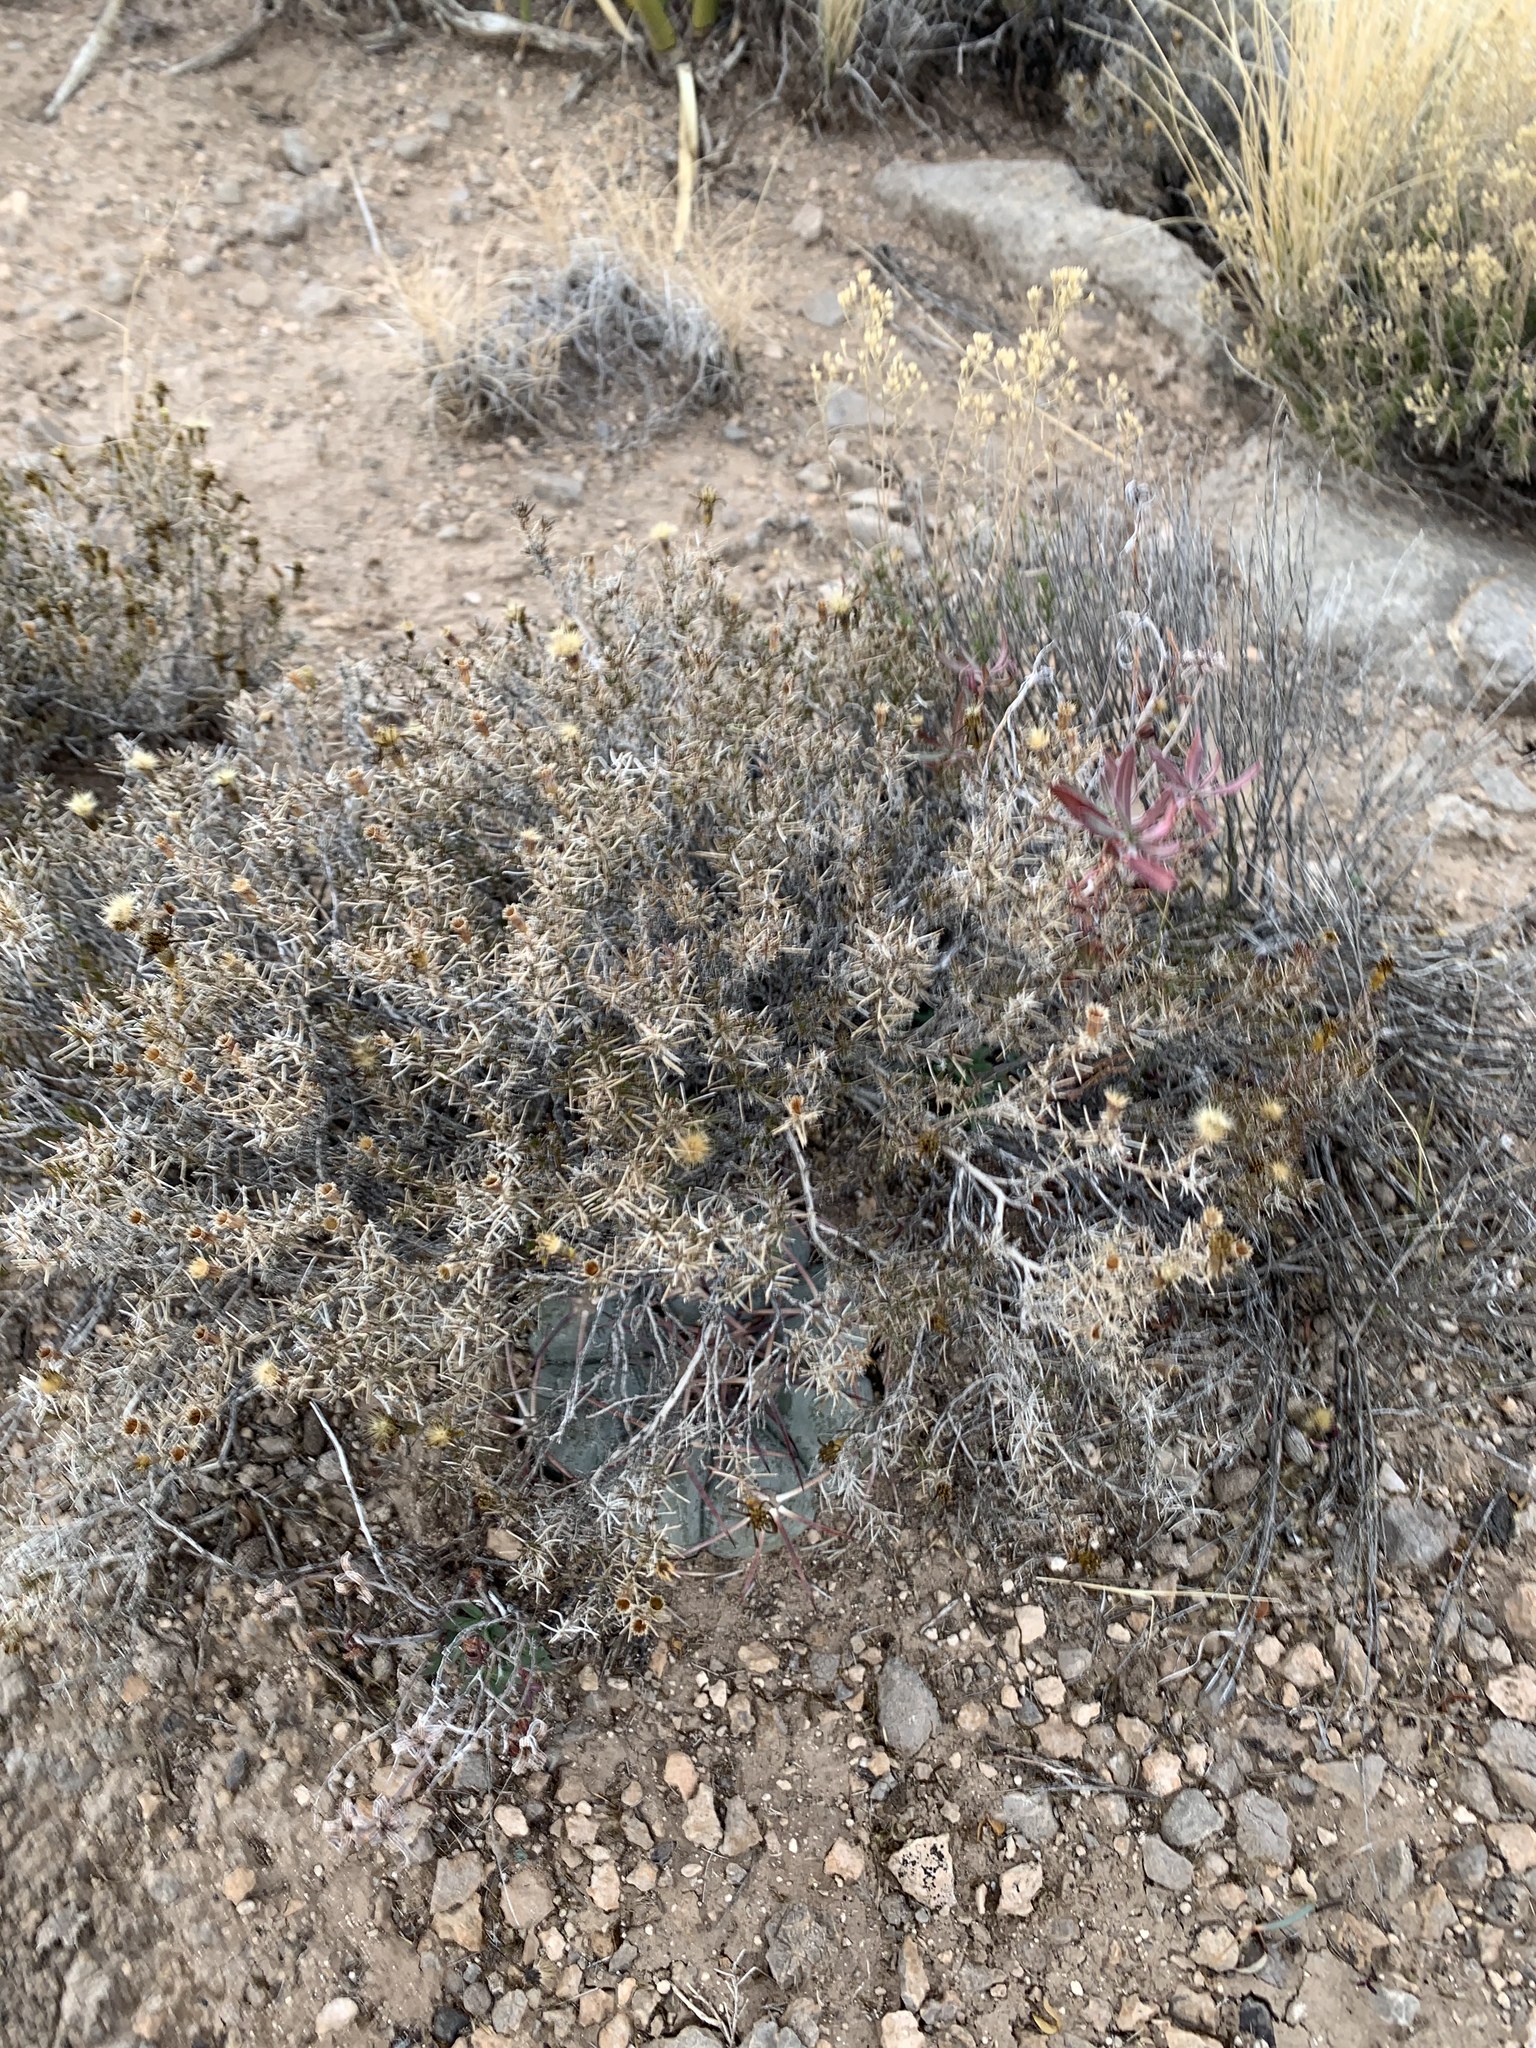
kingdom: Plantae
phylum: Tracheophyta
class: Magnoliopsida
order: Caryophyllales
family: Cactaceae
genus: Echinocactus
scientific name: Echinocactus horizonthalonius
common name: Devilshead
